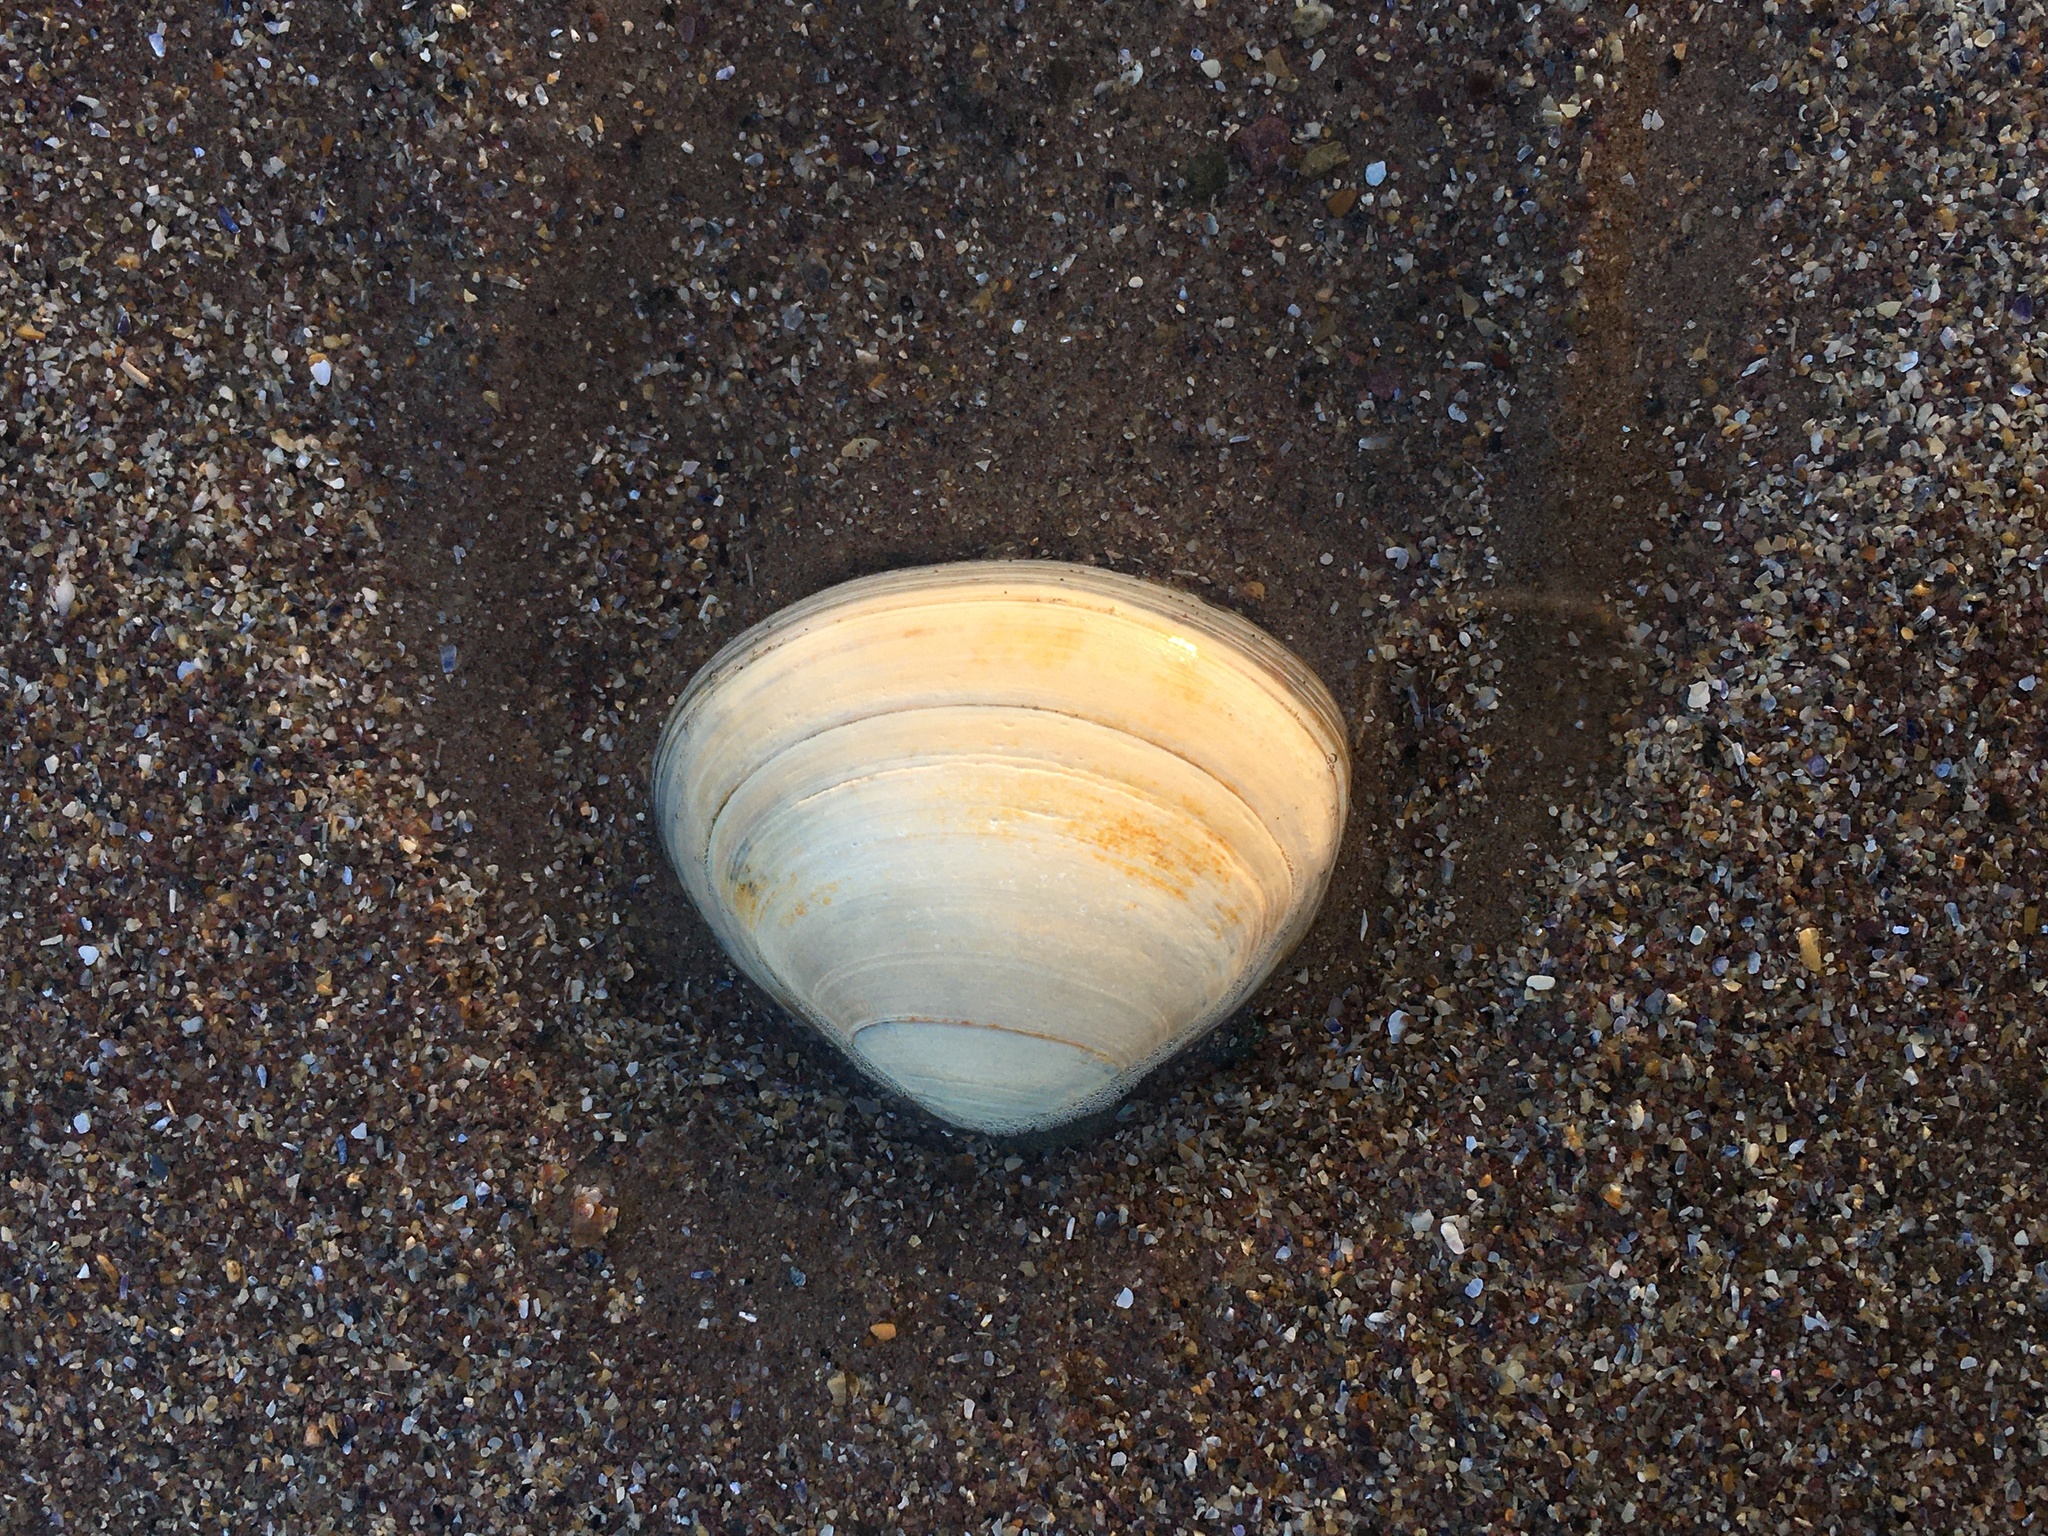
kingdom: Animalia
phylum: Mollusca
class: Bivalvia
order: Venerida
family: Mactridae
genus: Spisula
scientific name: Spisula solida
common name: Thick trough shell
